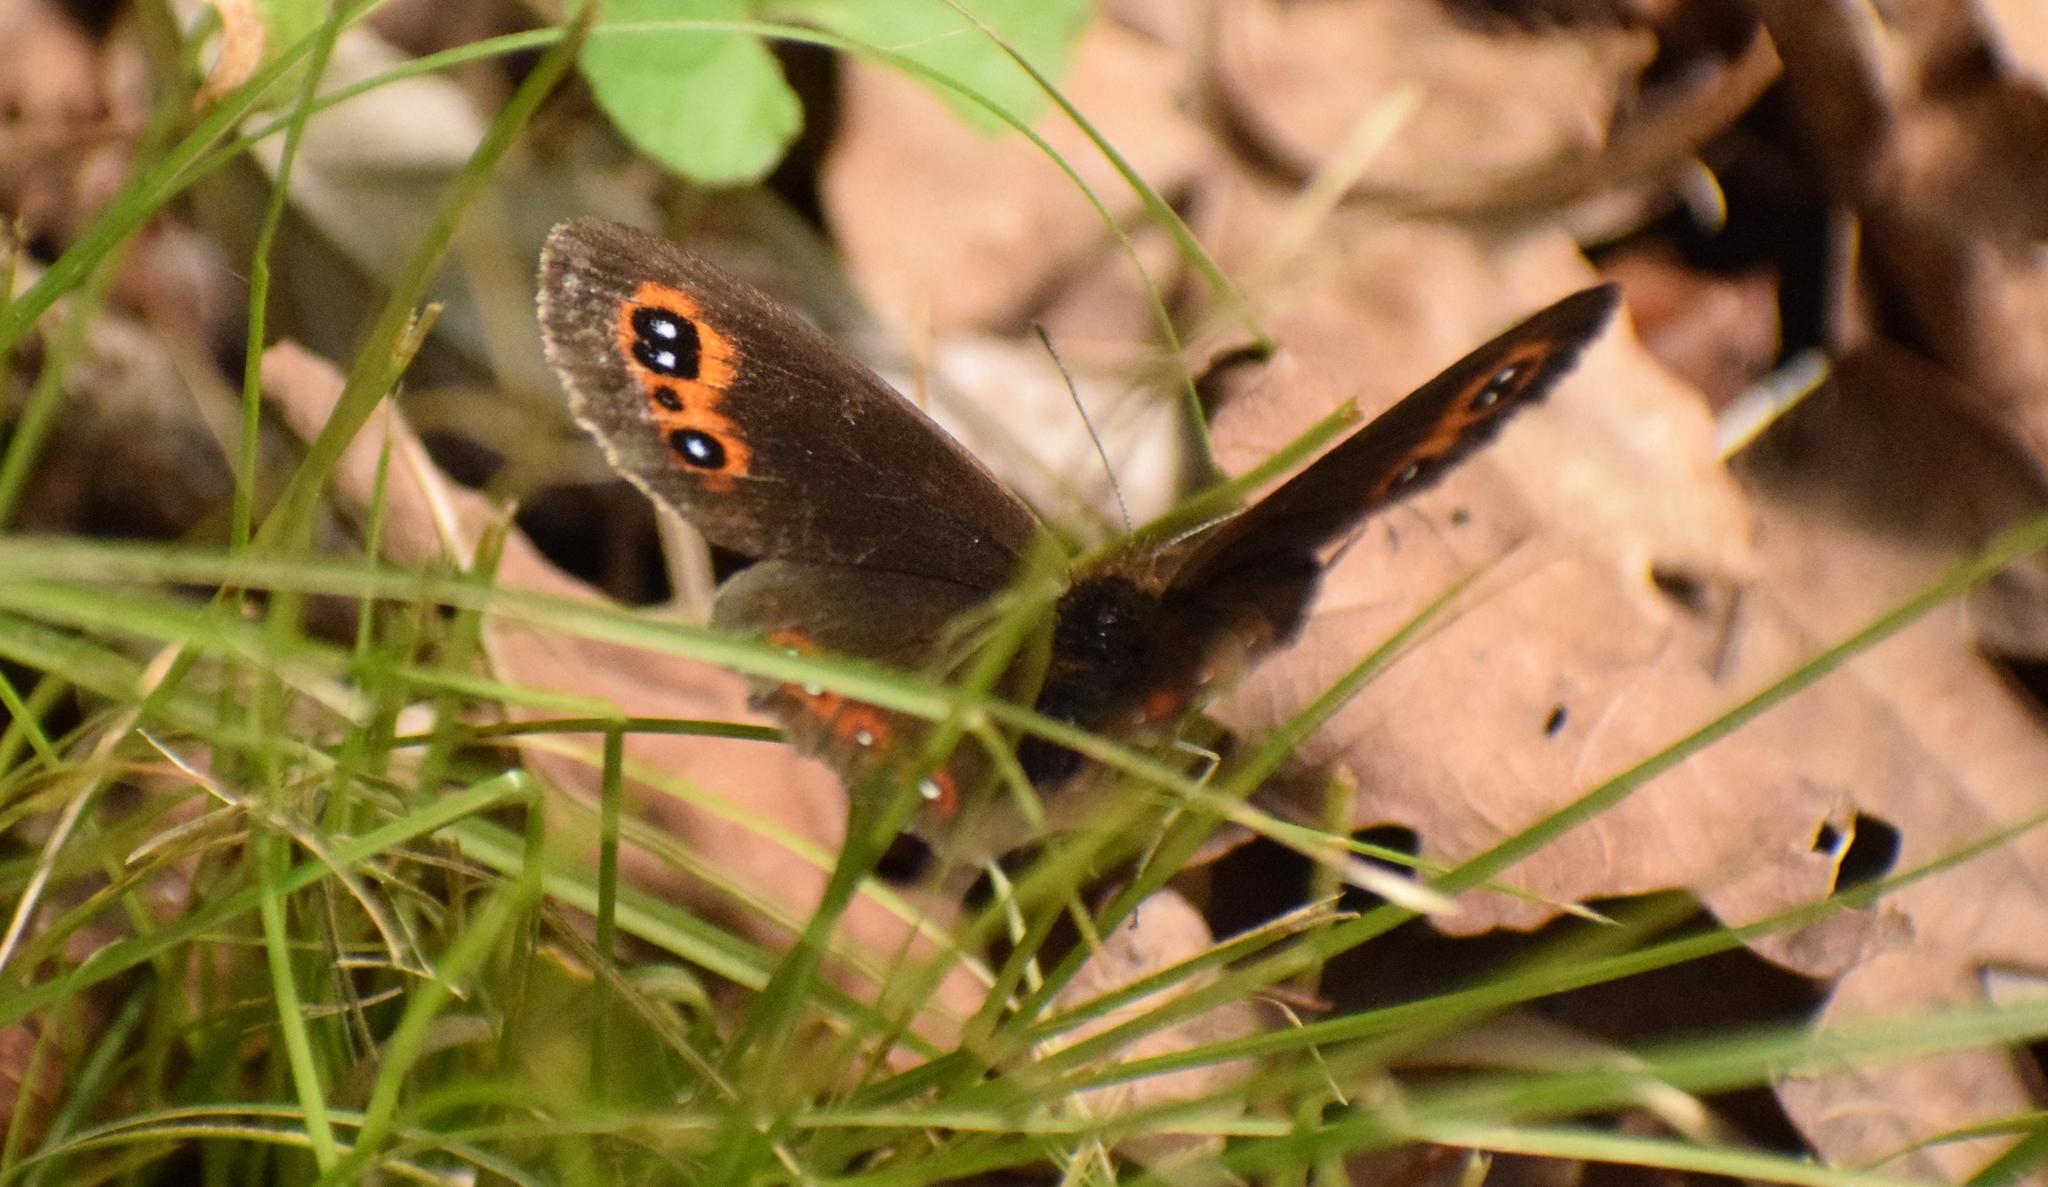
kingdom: Animalia
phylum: Arthropoda
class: Insecta
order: Lepidoptera
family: Nymphalidae
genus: Erebia
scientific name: Erebia aethiops
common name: Scotch argus
